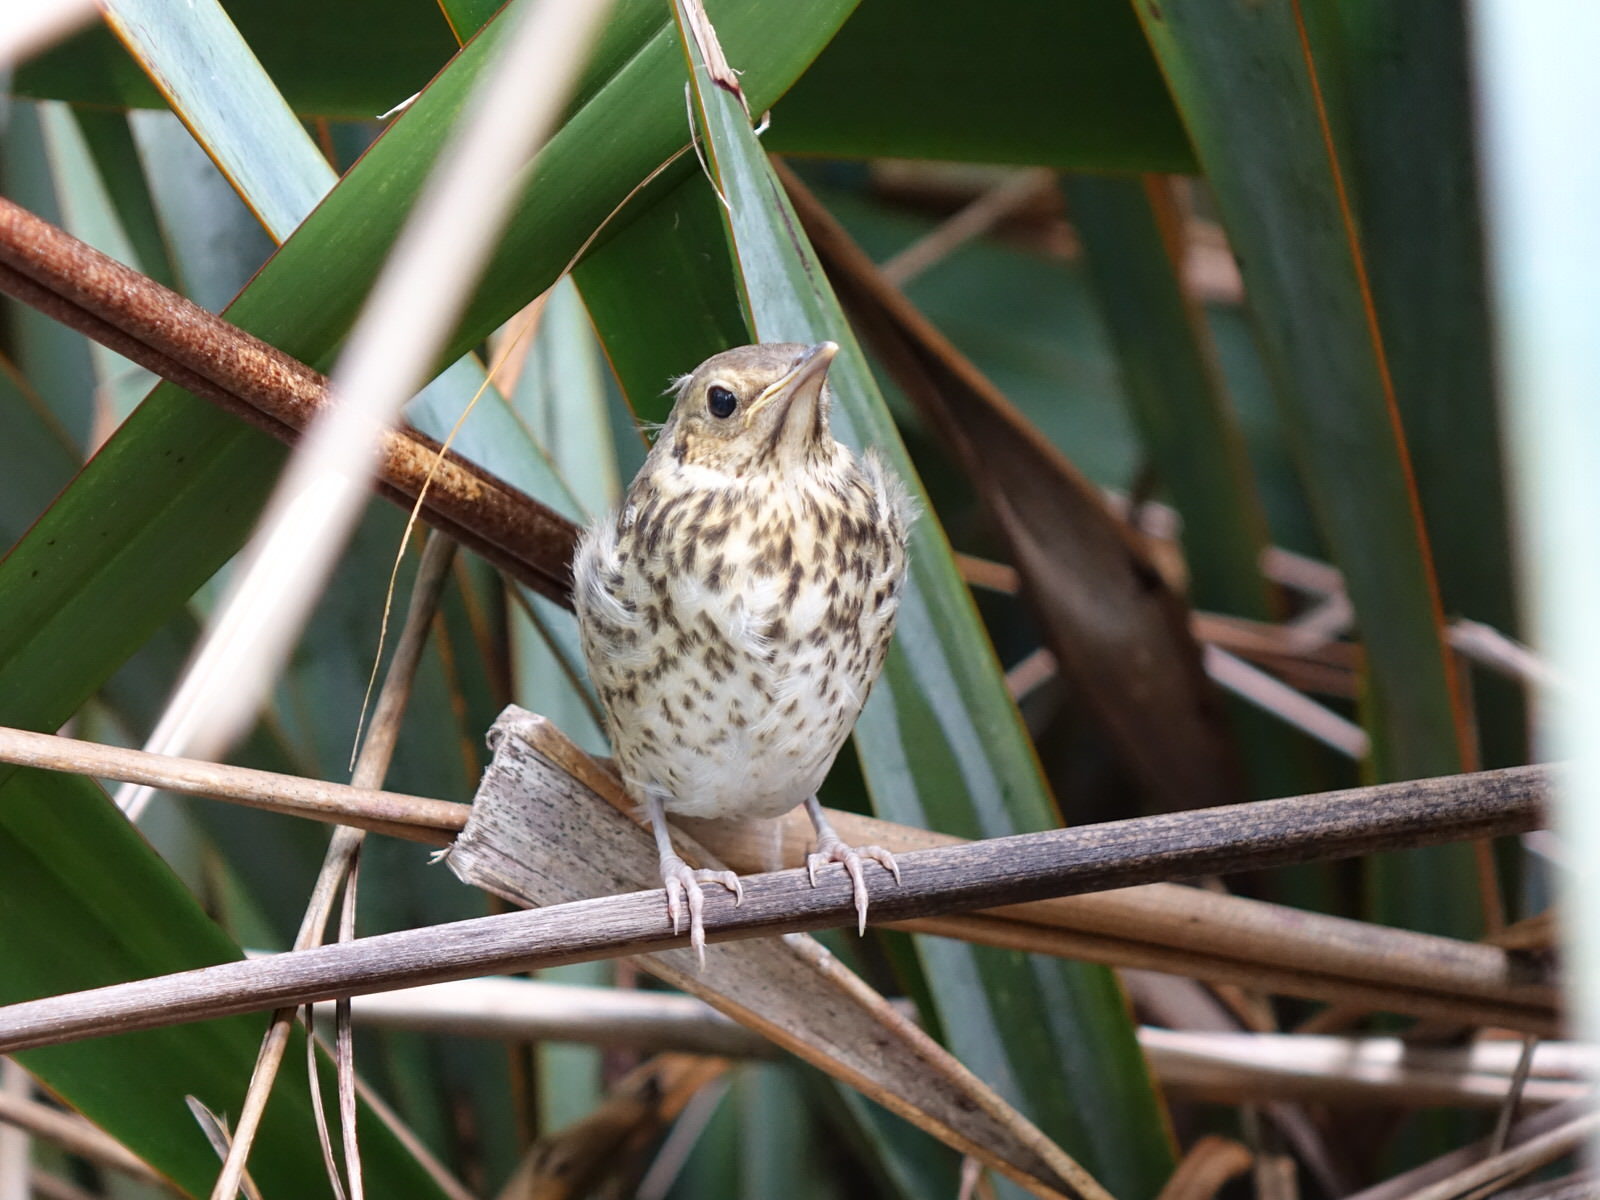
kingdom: Animalia
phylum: Chordata
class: Aves
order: Passeriformes
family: Turdidae
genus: Turdus
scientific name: Turdus philomelos
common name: Song thrush
